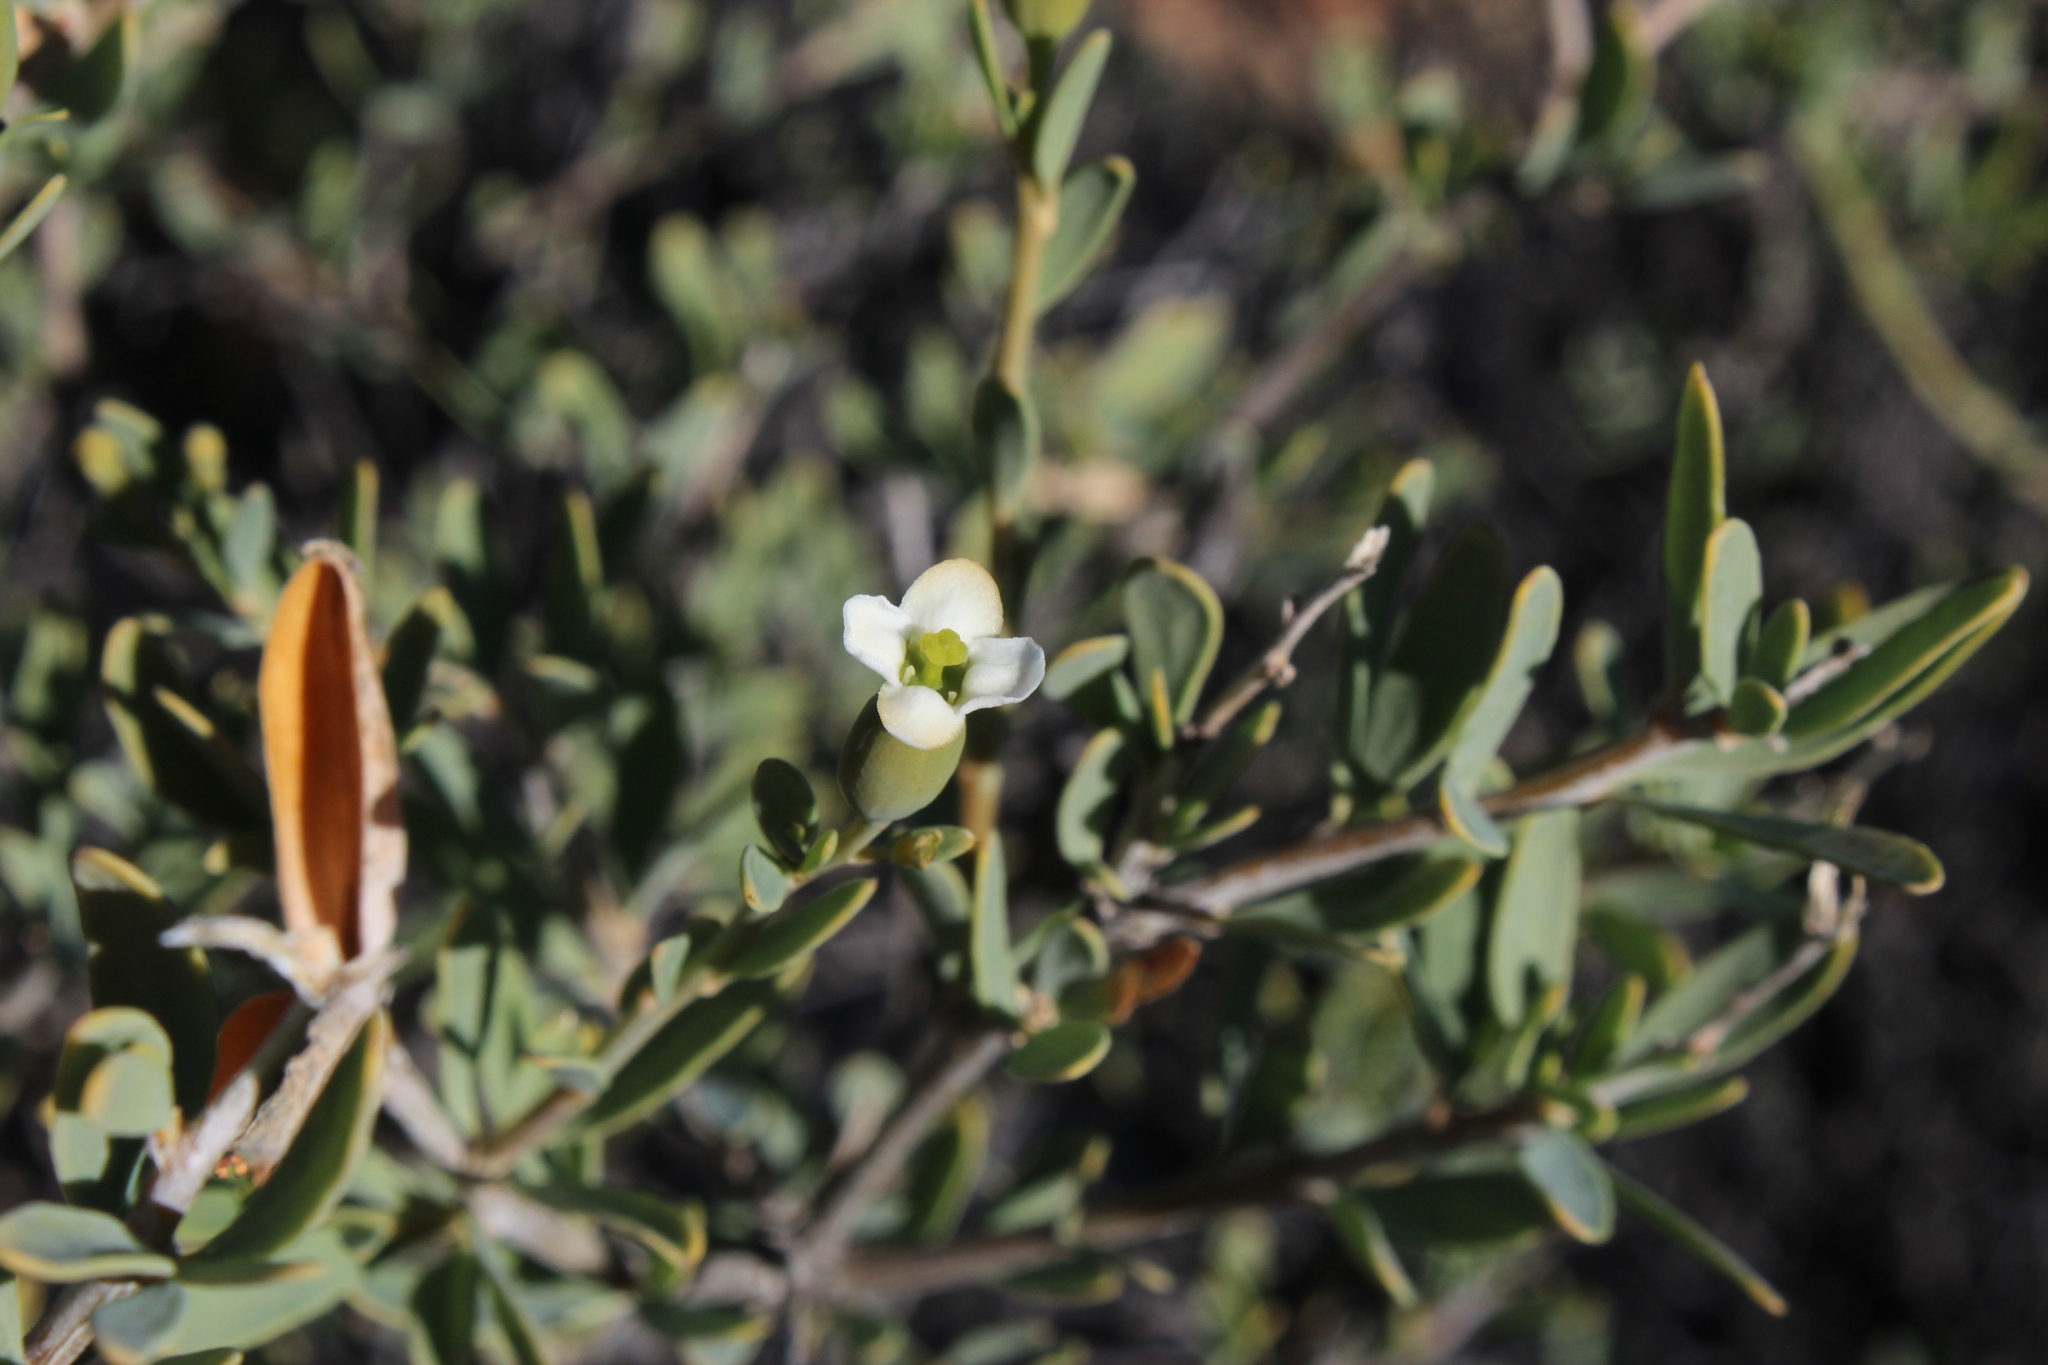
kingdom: Plantae
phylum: Tracheophyta
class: Magnoliopsida
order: Solanales
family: Montiniaceae
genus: Montinia
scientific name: Montinia caryophyllacea
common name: Wild clove-bush
